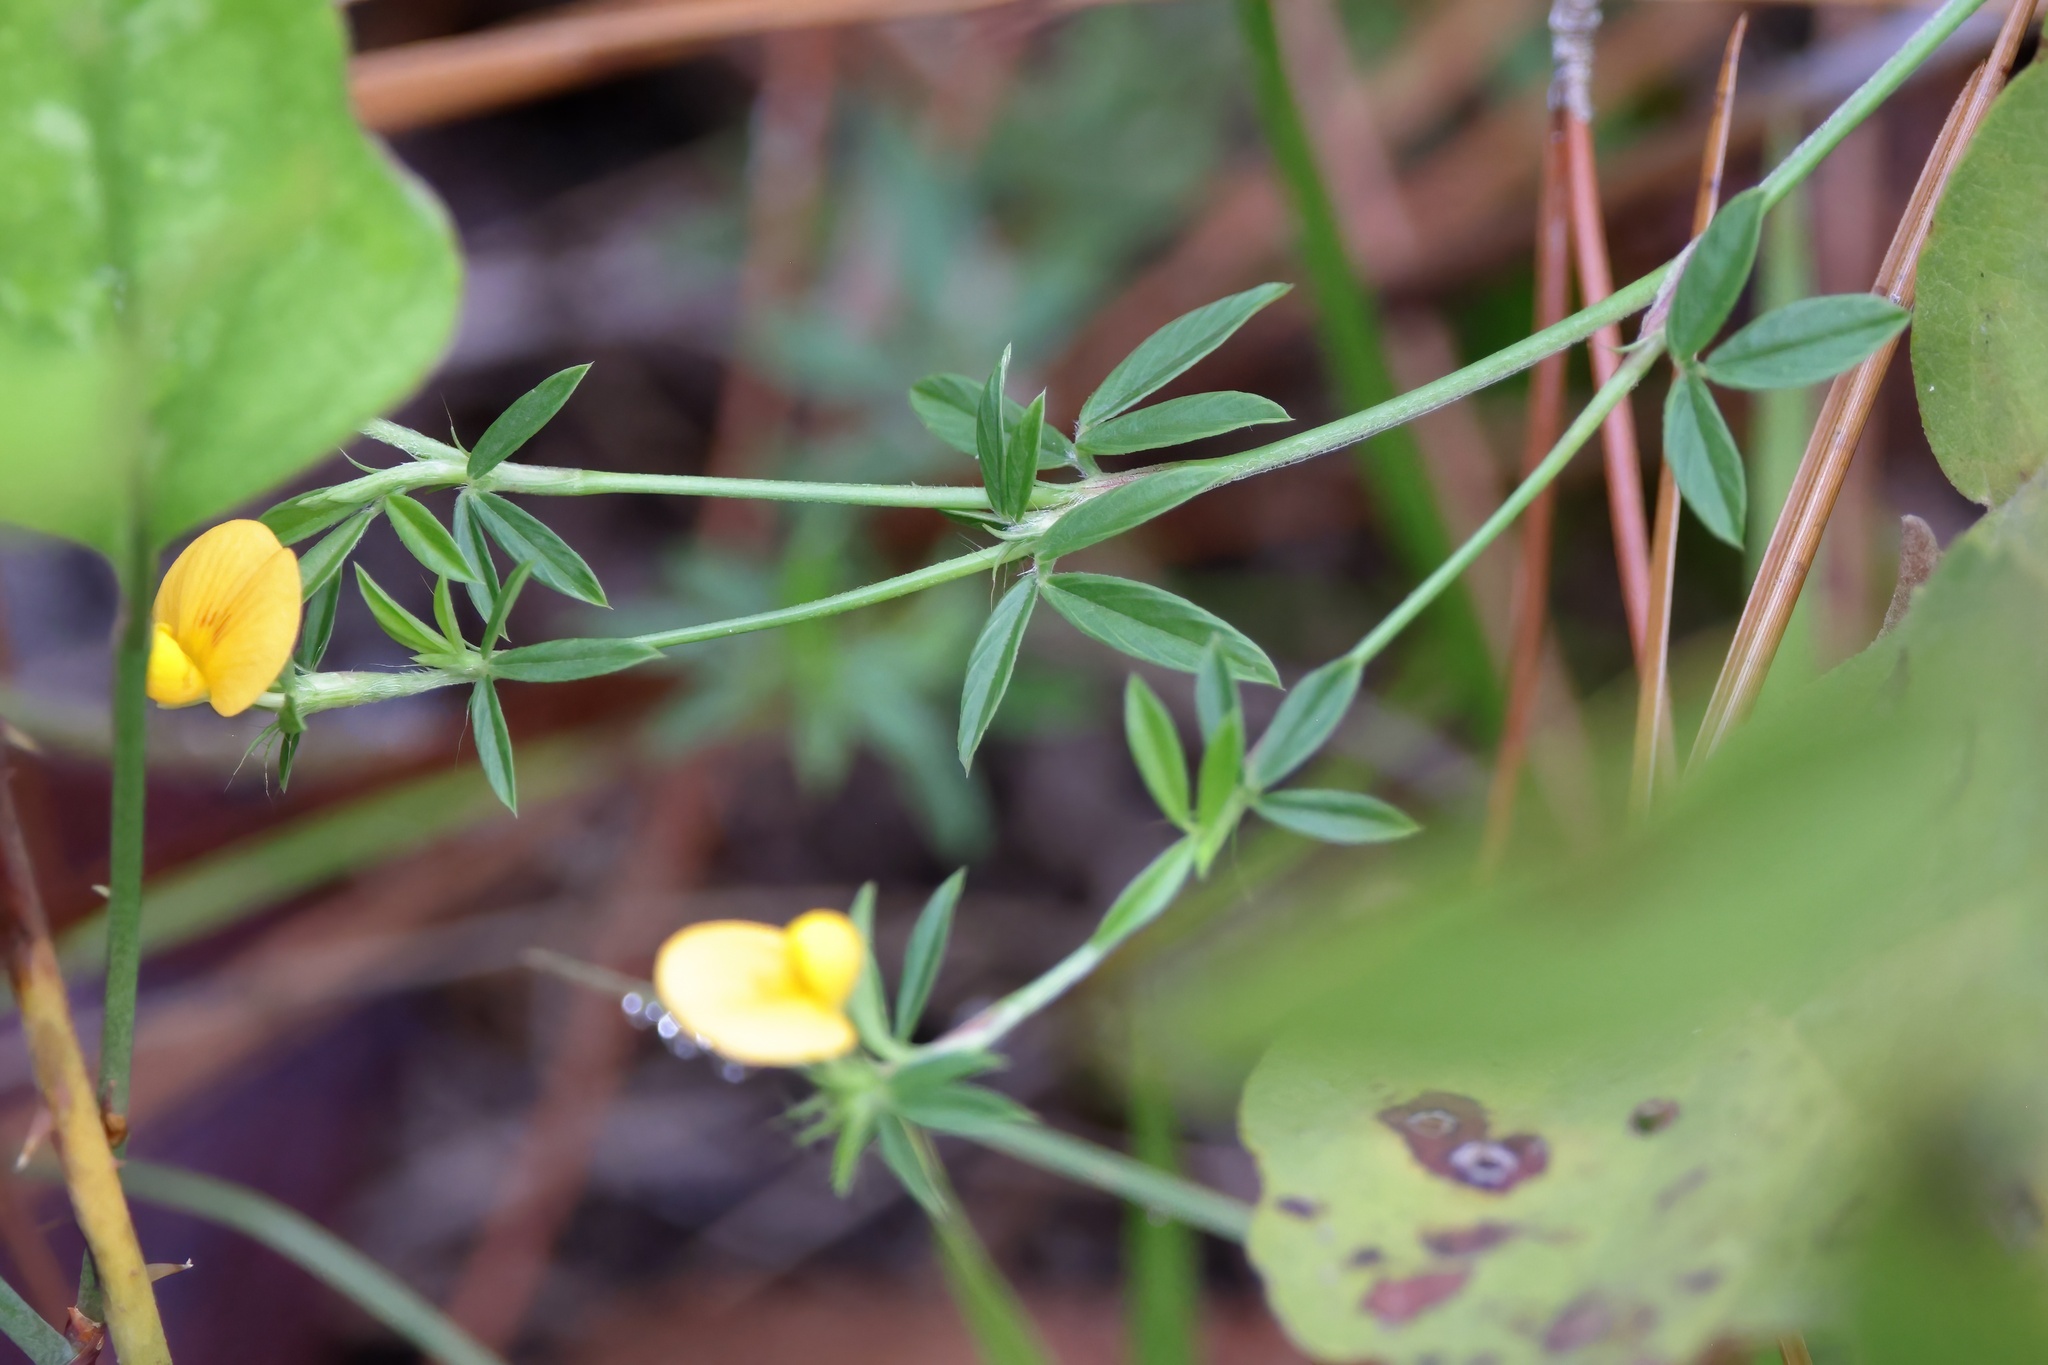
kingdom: Plantae
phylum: Tracheophyta
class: Magnoliopsida
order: Fabales
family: Fabaceae
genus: Stylosanthes
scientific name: Stylosanthes biflora
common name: Two-flower pencil-flower
